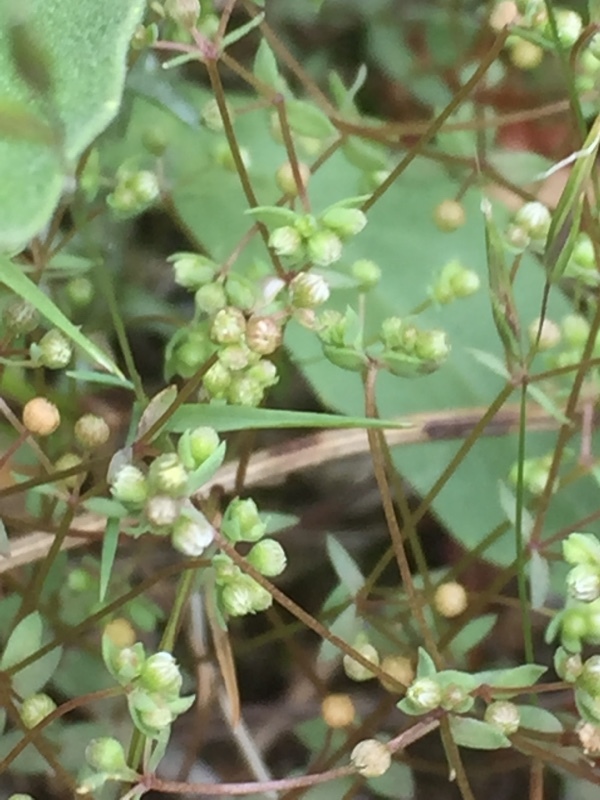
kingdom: Plantae
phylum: Tracheophyta
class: Magnoliopsida
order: Malpighiales
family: Linaceae
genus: Radiola
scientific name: Radiola linoides
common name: Allseed
